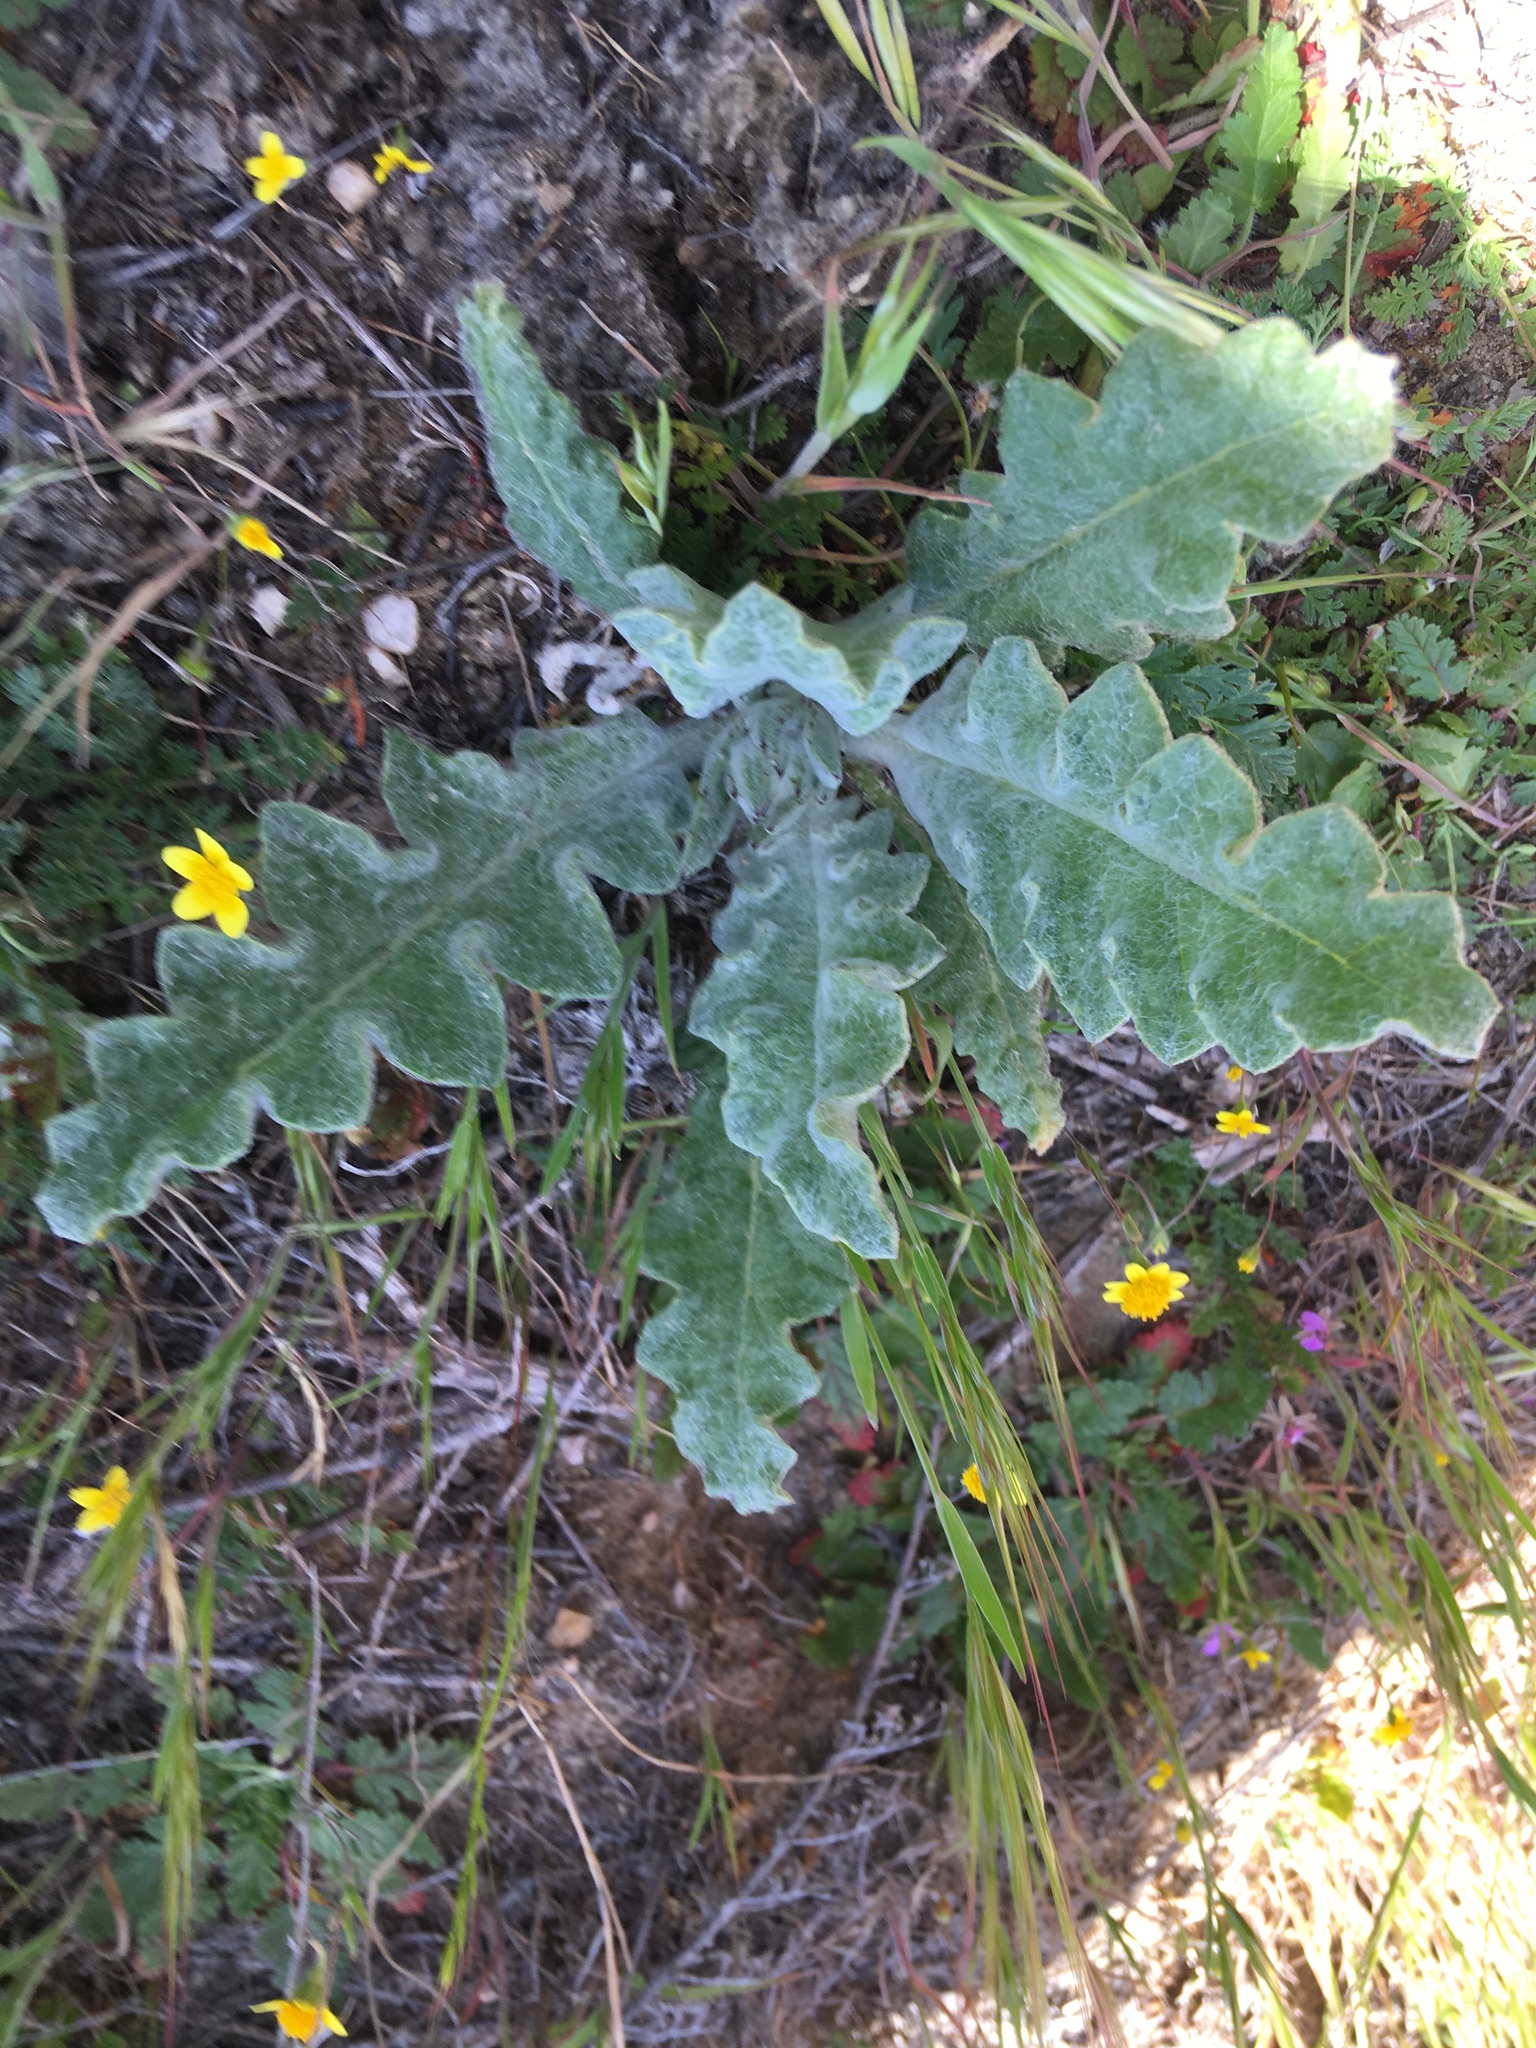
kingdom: Plantae
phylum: Tracheophyta
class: Magnoliopsida
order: Lamiales
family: Lamiaceae
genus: Salvia
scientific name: Salvia carduacea
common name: Thistle sage
